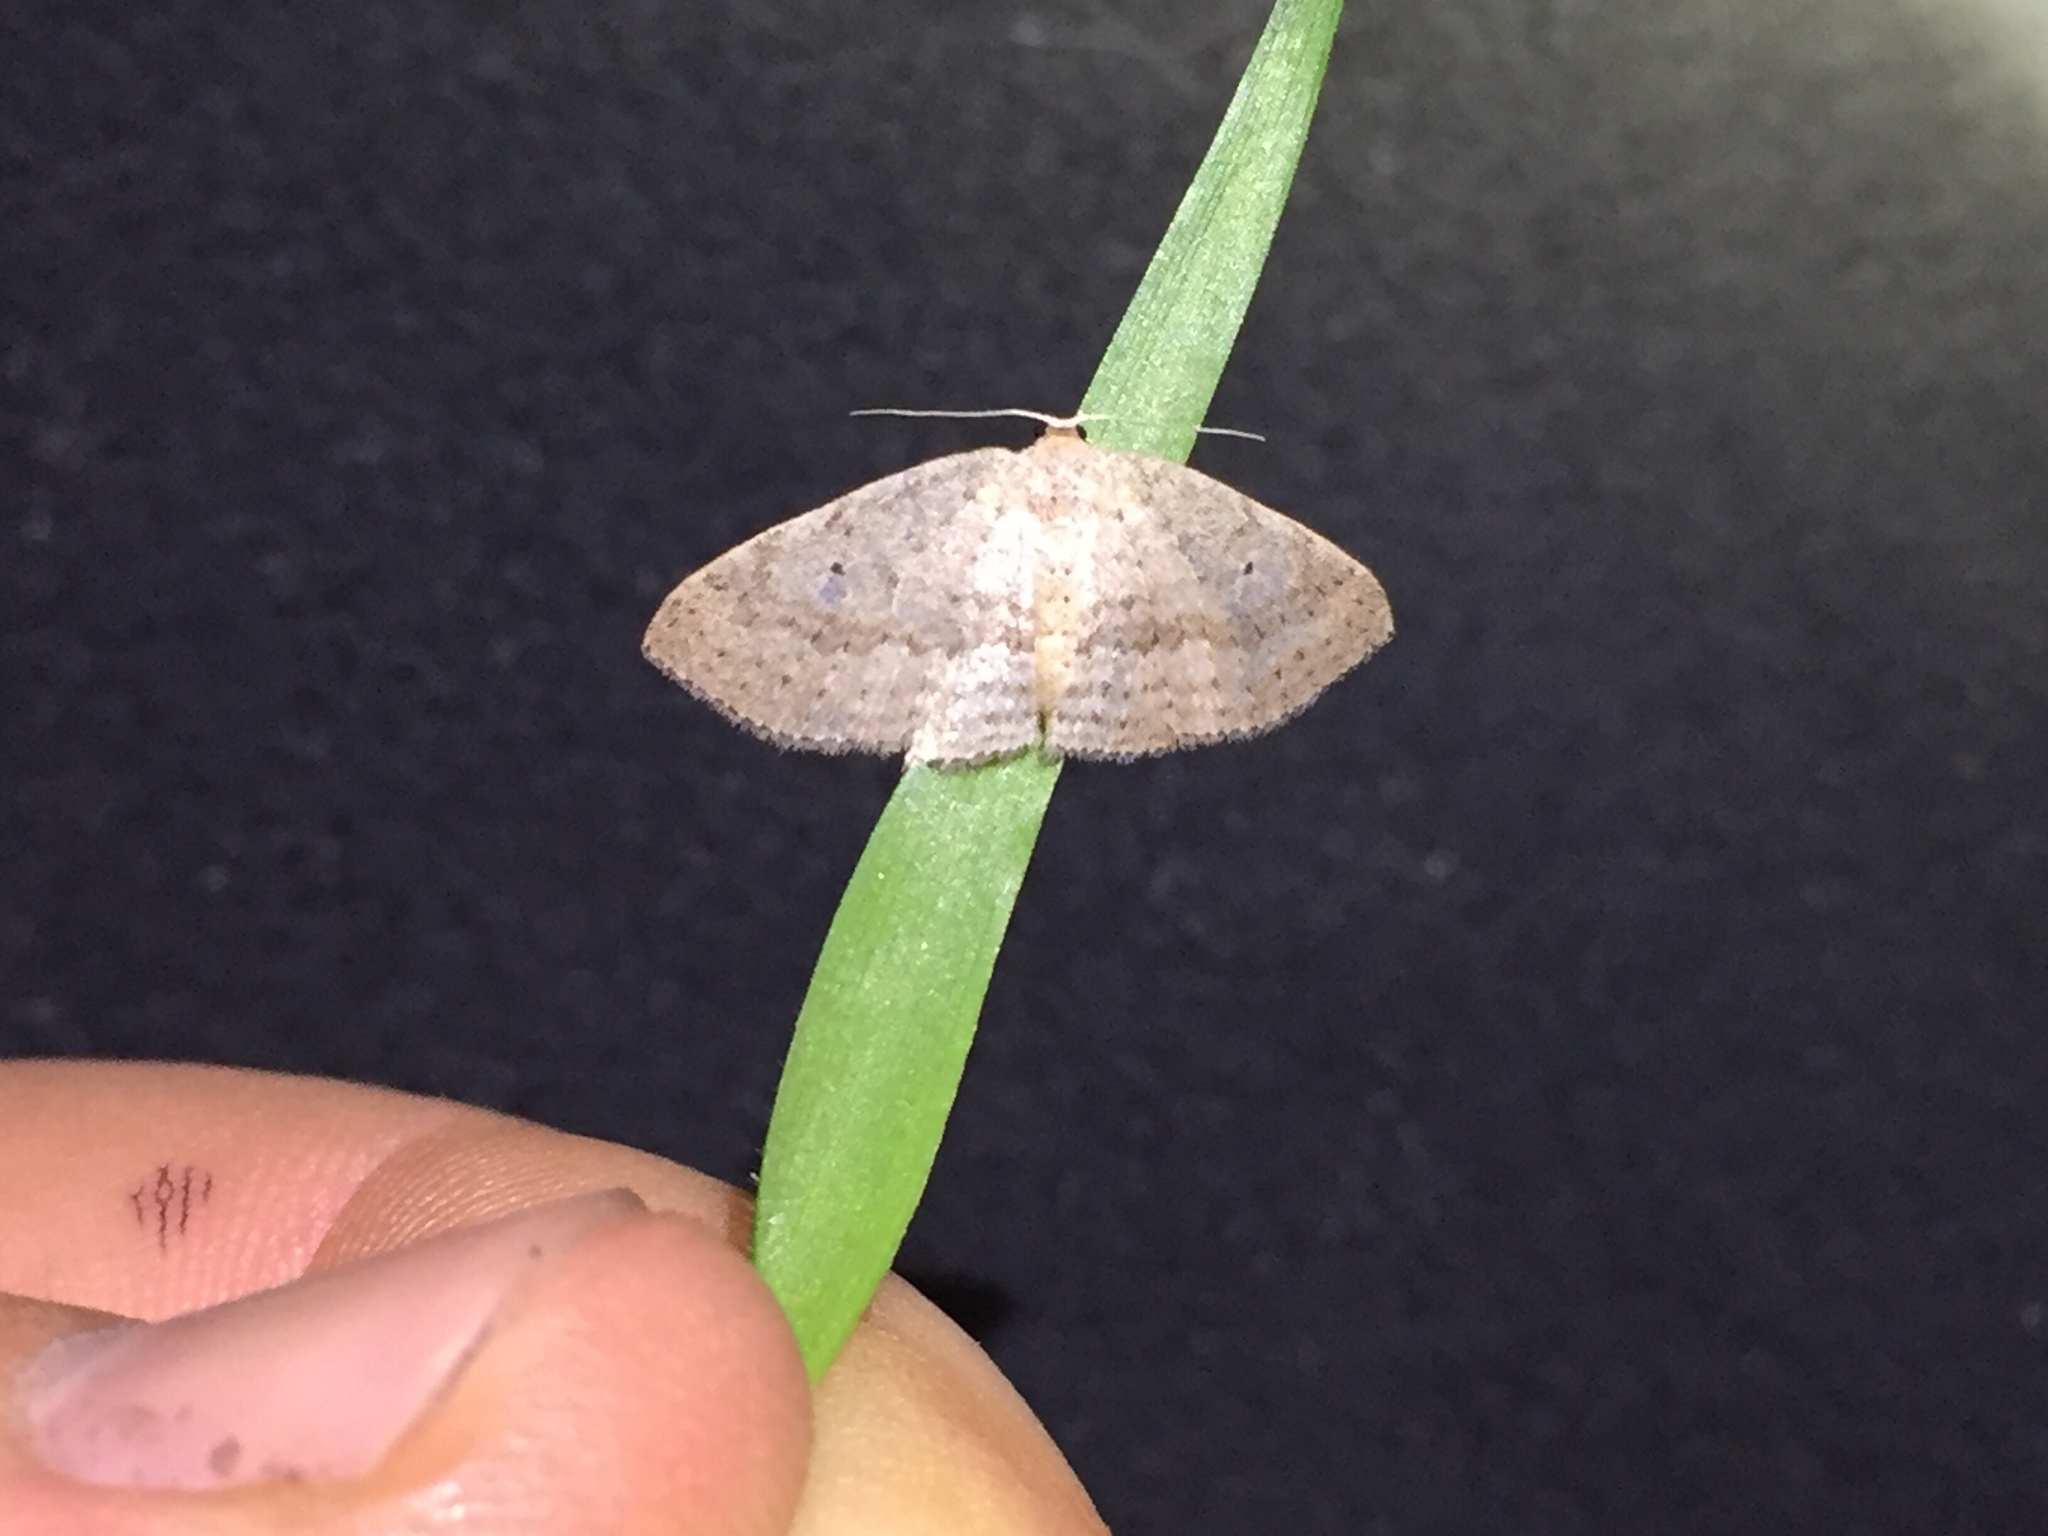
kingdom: Animalia
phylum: Arthropoda
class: Insecta
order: Lepidoptera
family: Geometridae
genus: Poecilasthena
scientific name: Poecilasthena schistaria
